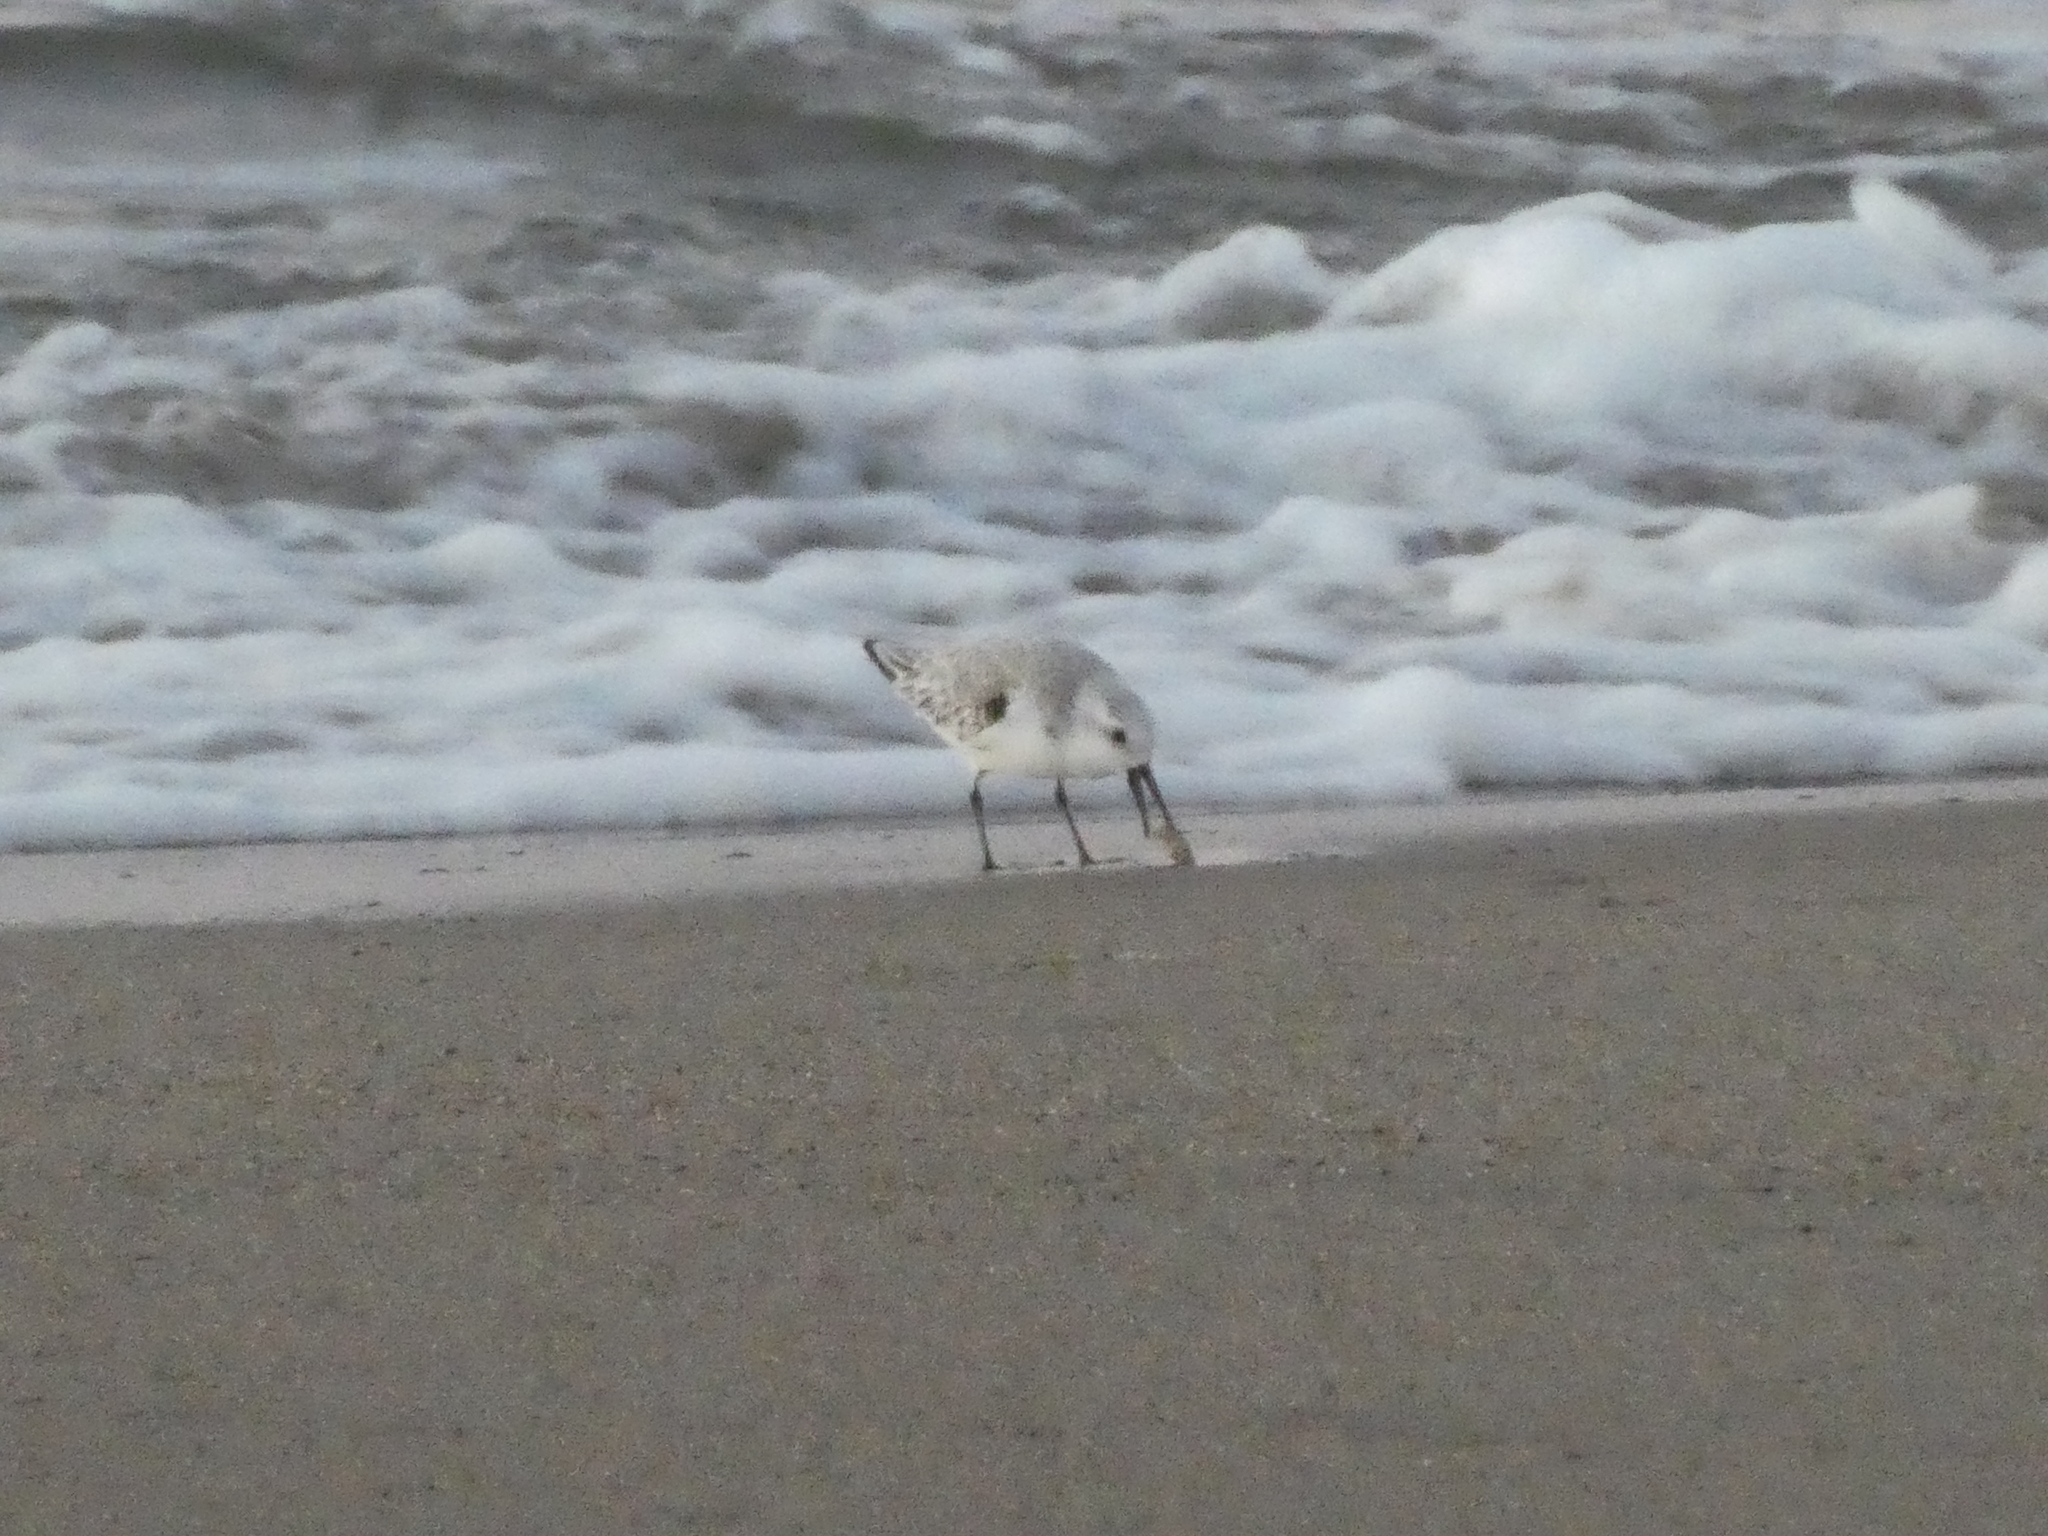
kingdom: Animalia
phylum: Chordata
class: Aves
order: Charadriiformes
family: Scolopacidae
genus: Calidris
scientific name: Calidris alba
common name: Sanderling
